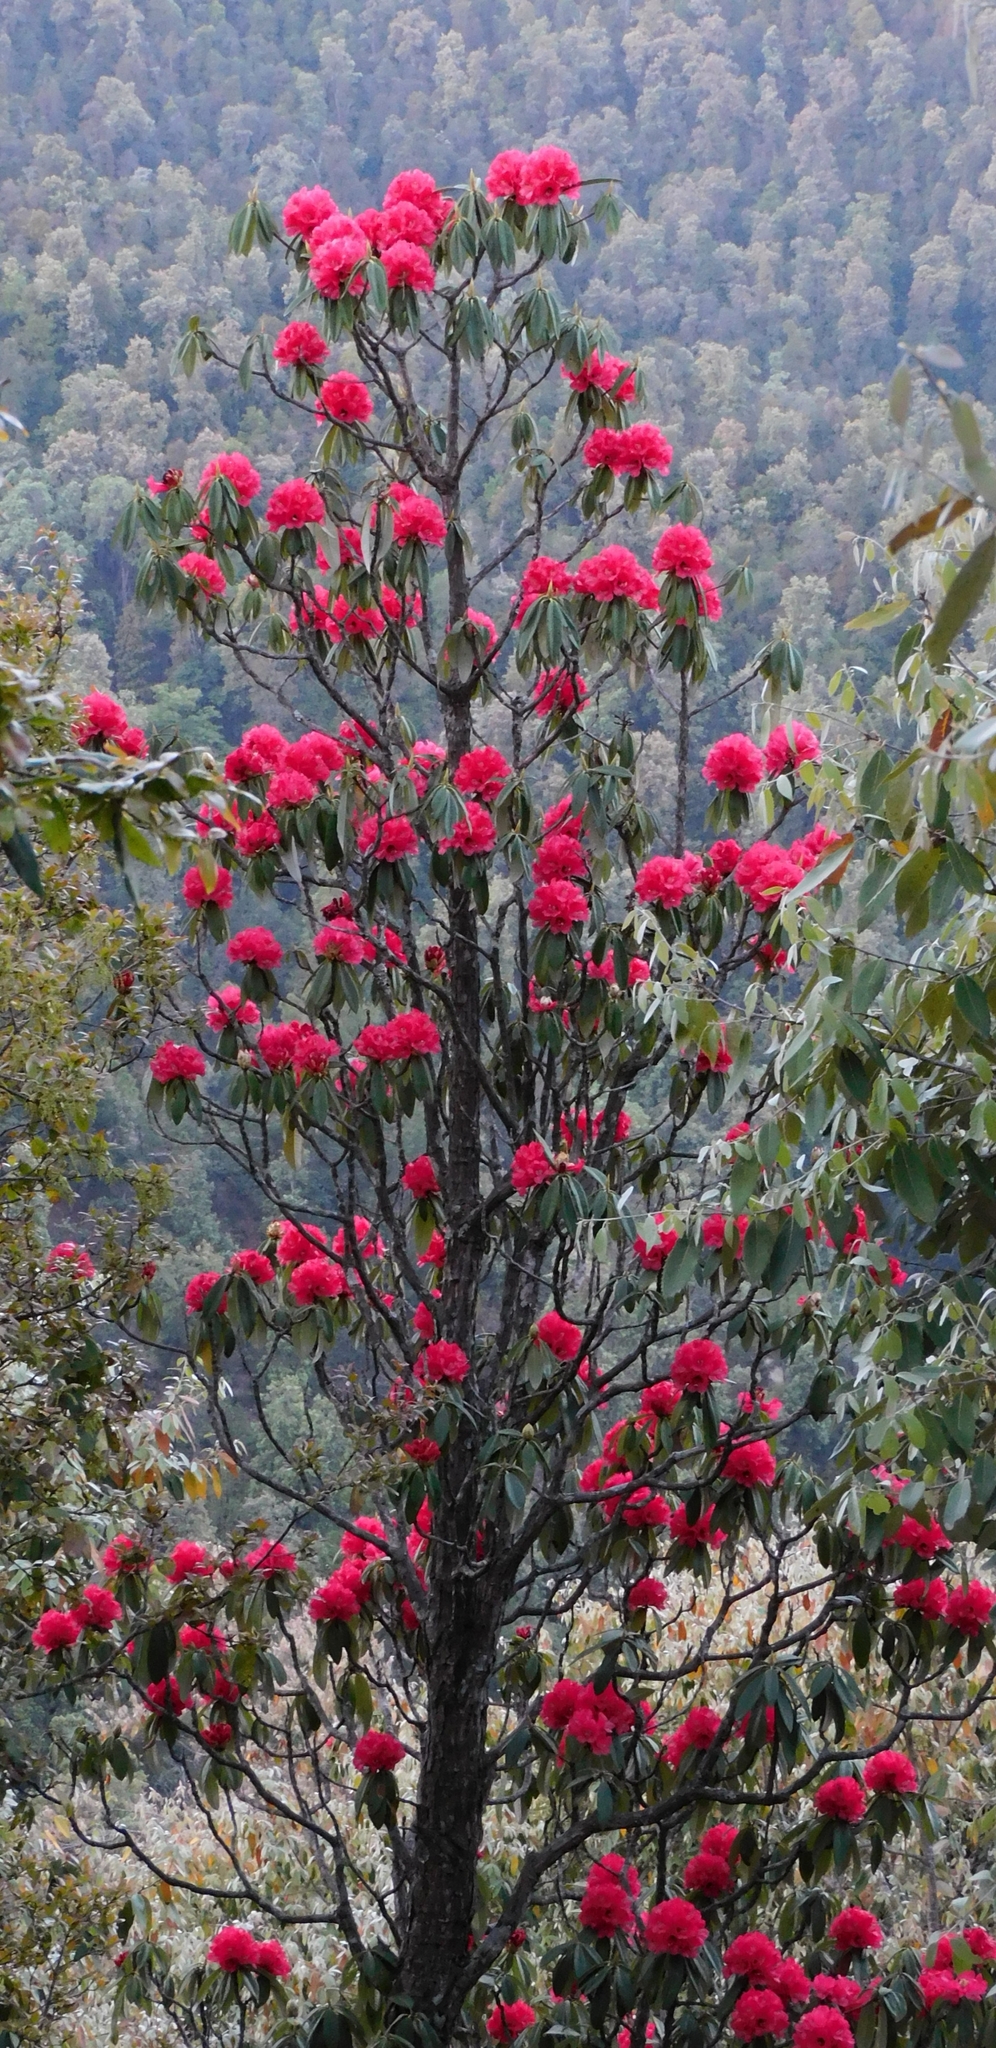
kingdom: Plantae
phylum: Tracheophyta
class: Magnoliopsida
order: Ericales
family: Ericaceae
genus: Rhododendron
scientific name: Rhododendron arboreum
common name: Tree rhododendron
